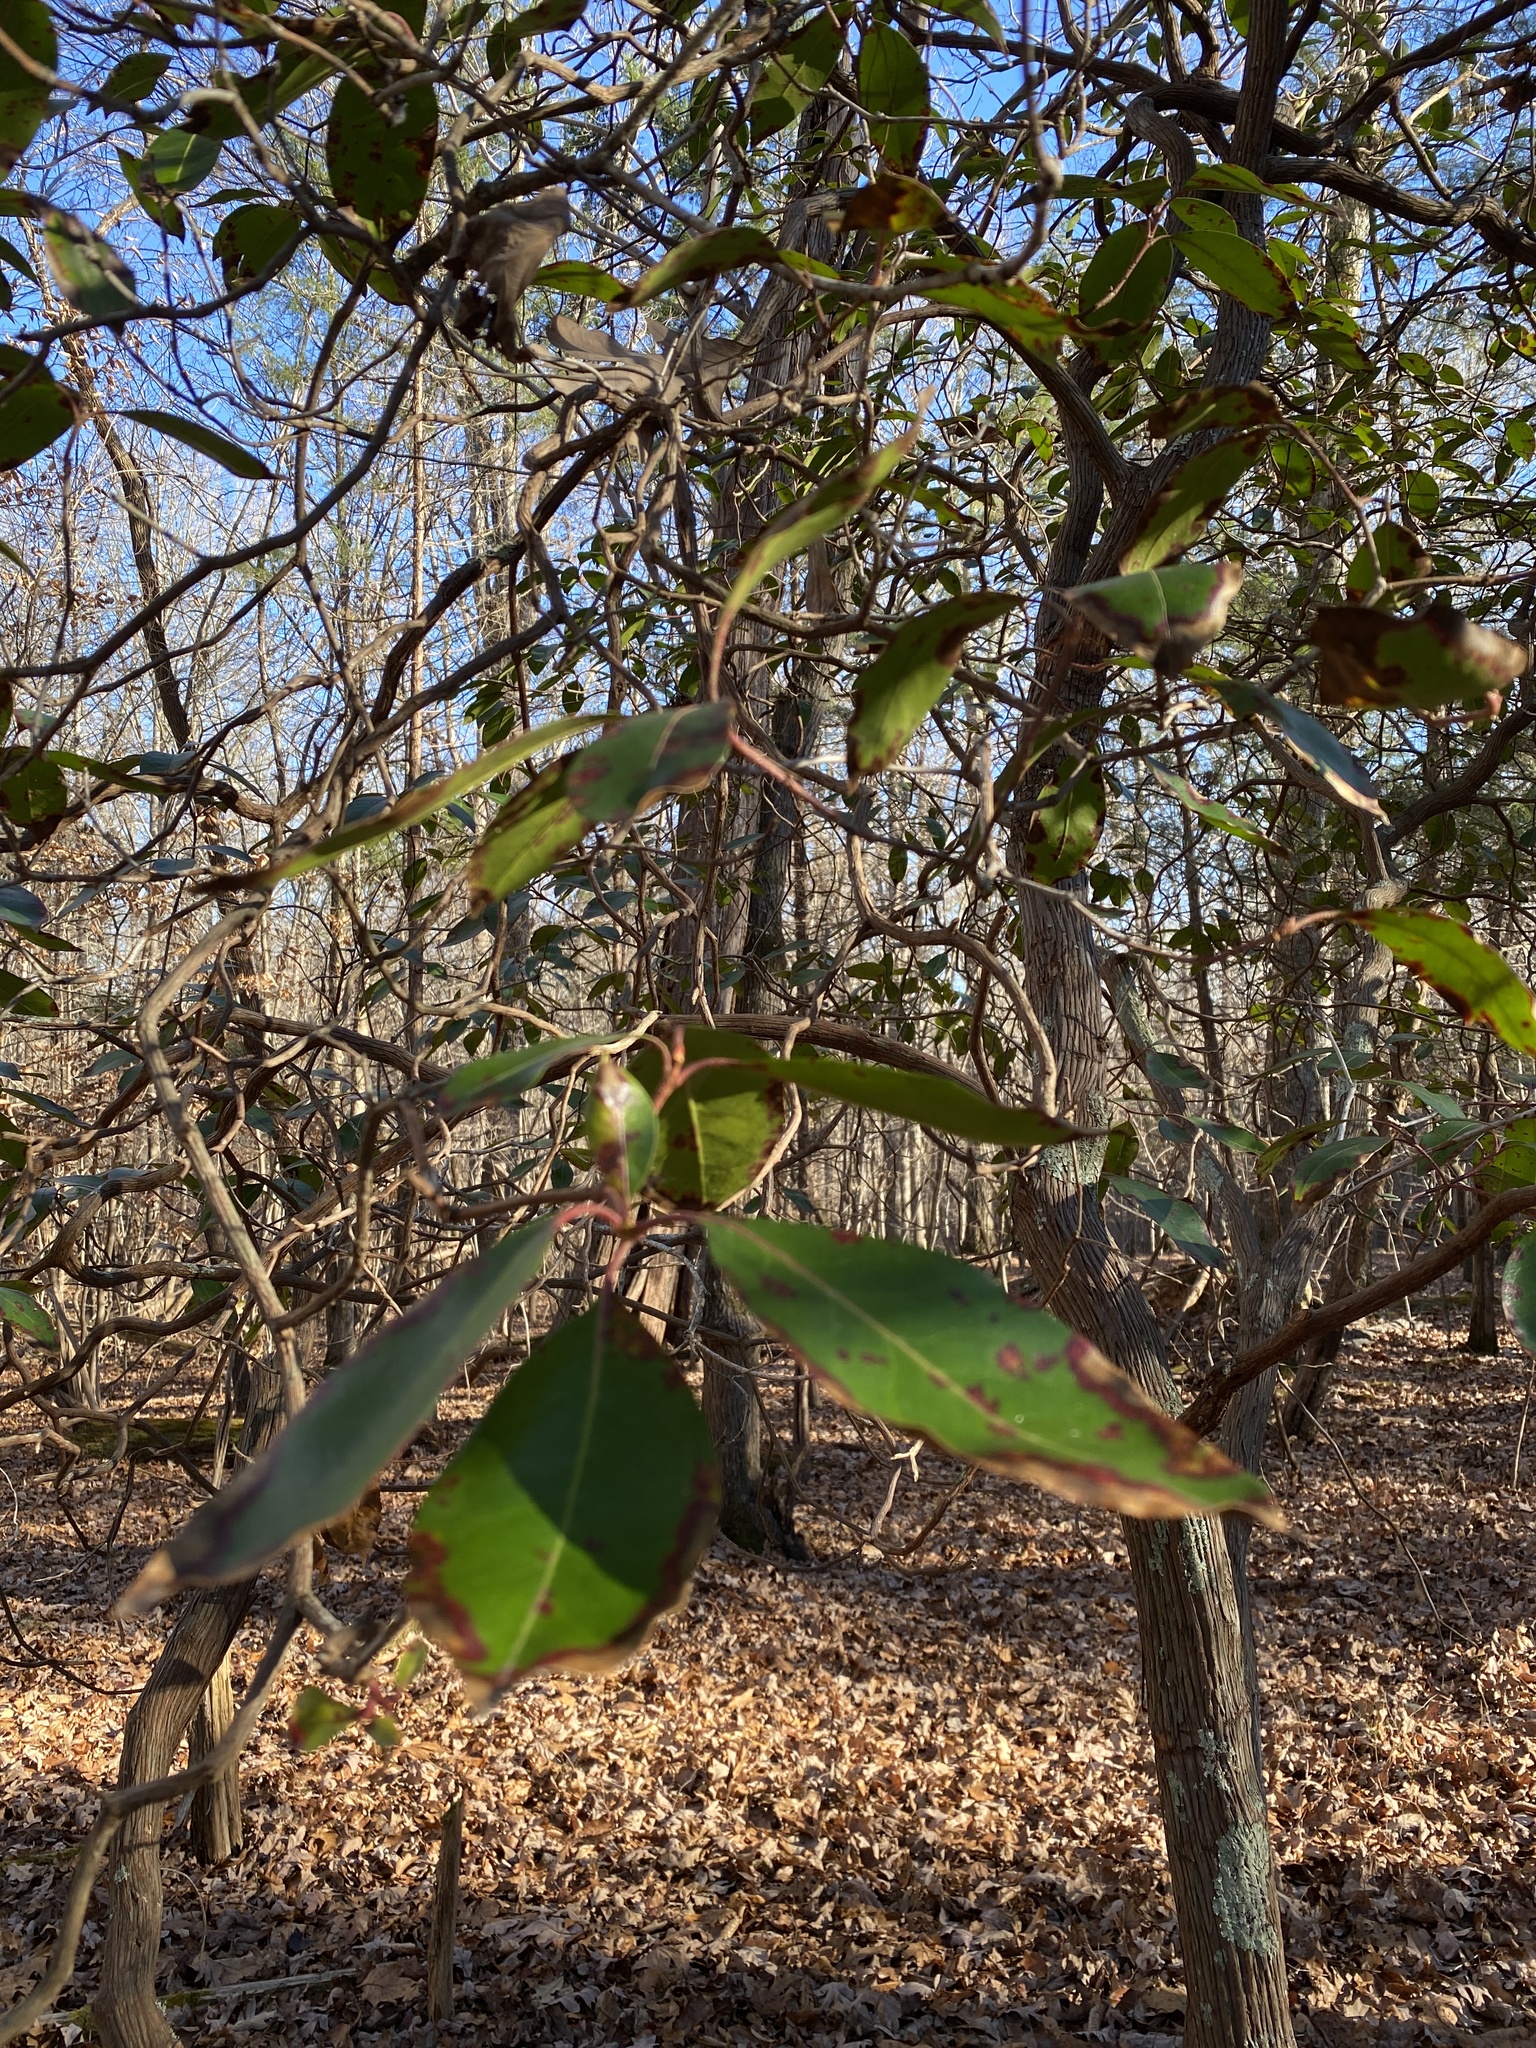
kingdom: Plantae
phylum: Tracheophyta
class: Magnoliopsida
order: Ericales
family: Ericaceae
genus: Kalmia
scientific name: Kalmia latifolia
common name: Mountain-laurel
